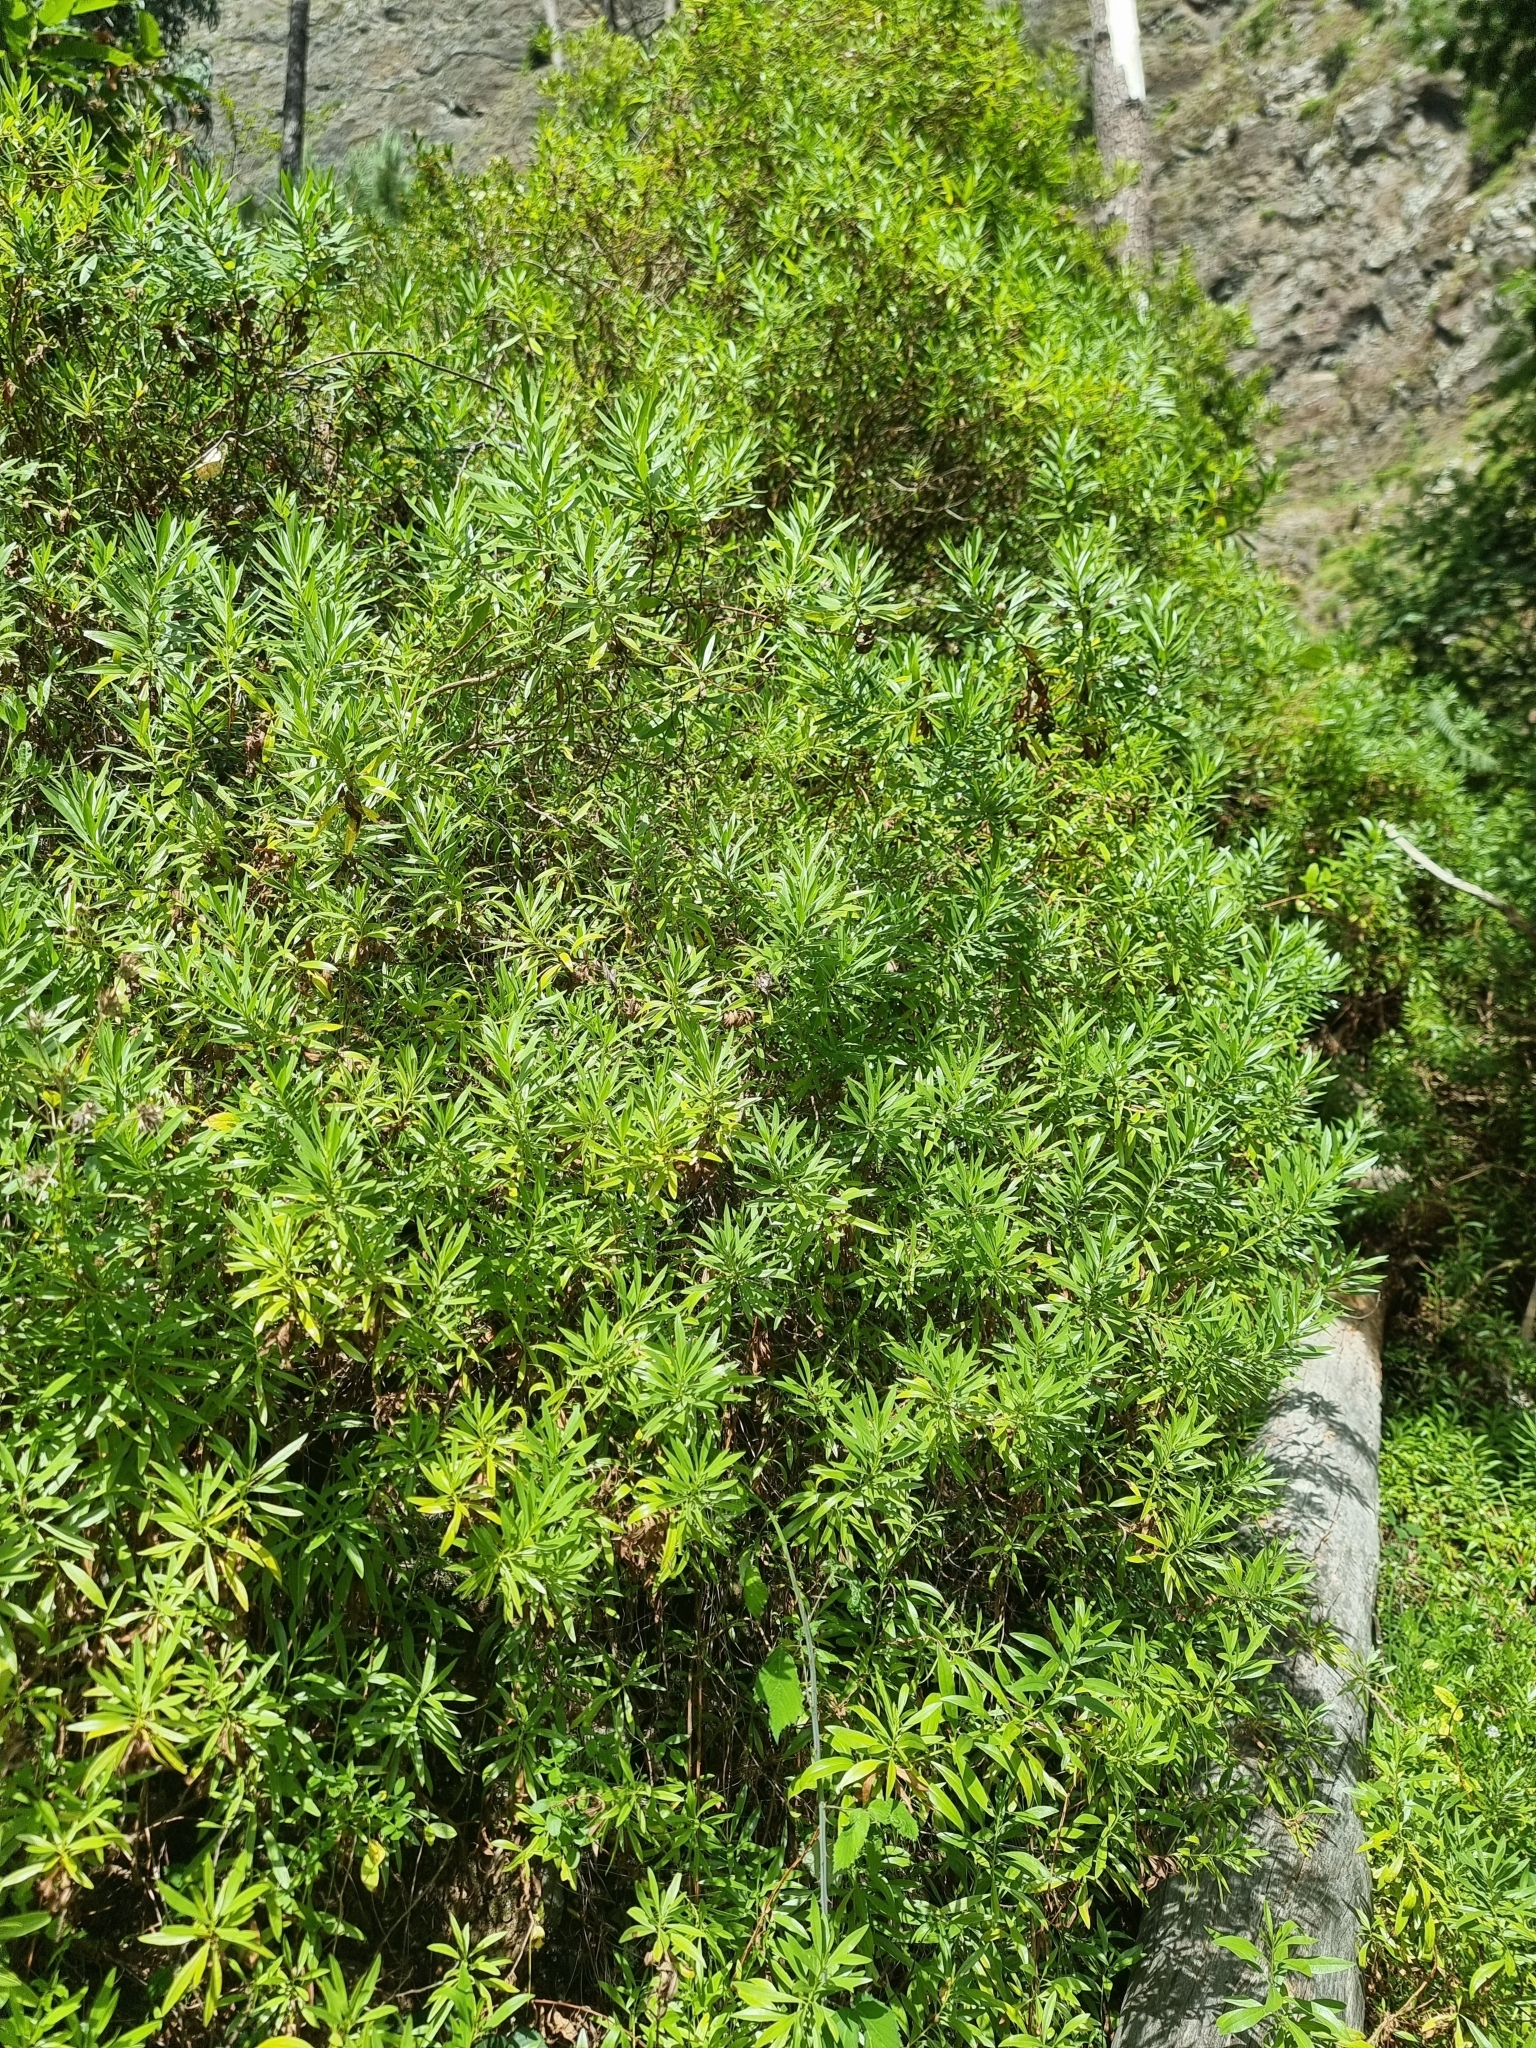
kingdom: Plantae
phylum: Tracheophyta
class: Magnoliopsida
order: Lamiales
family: Plantaginaceae
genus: Globularia
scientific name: Globularia salicina
